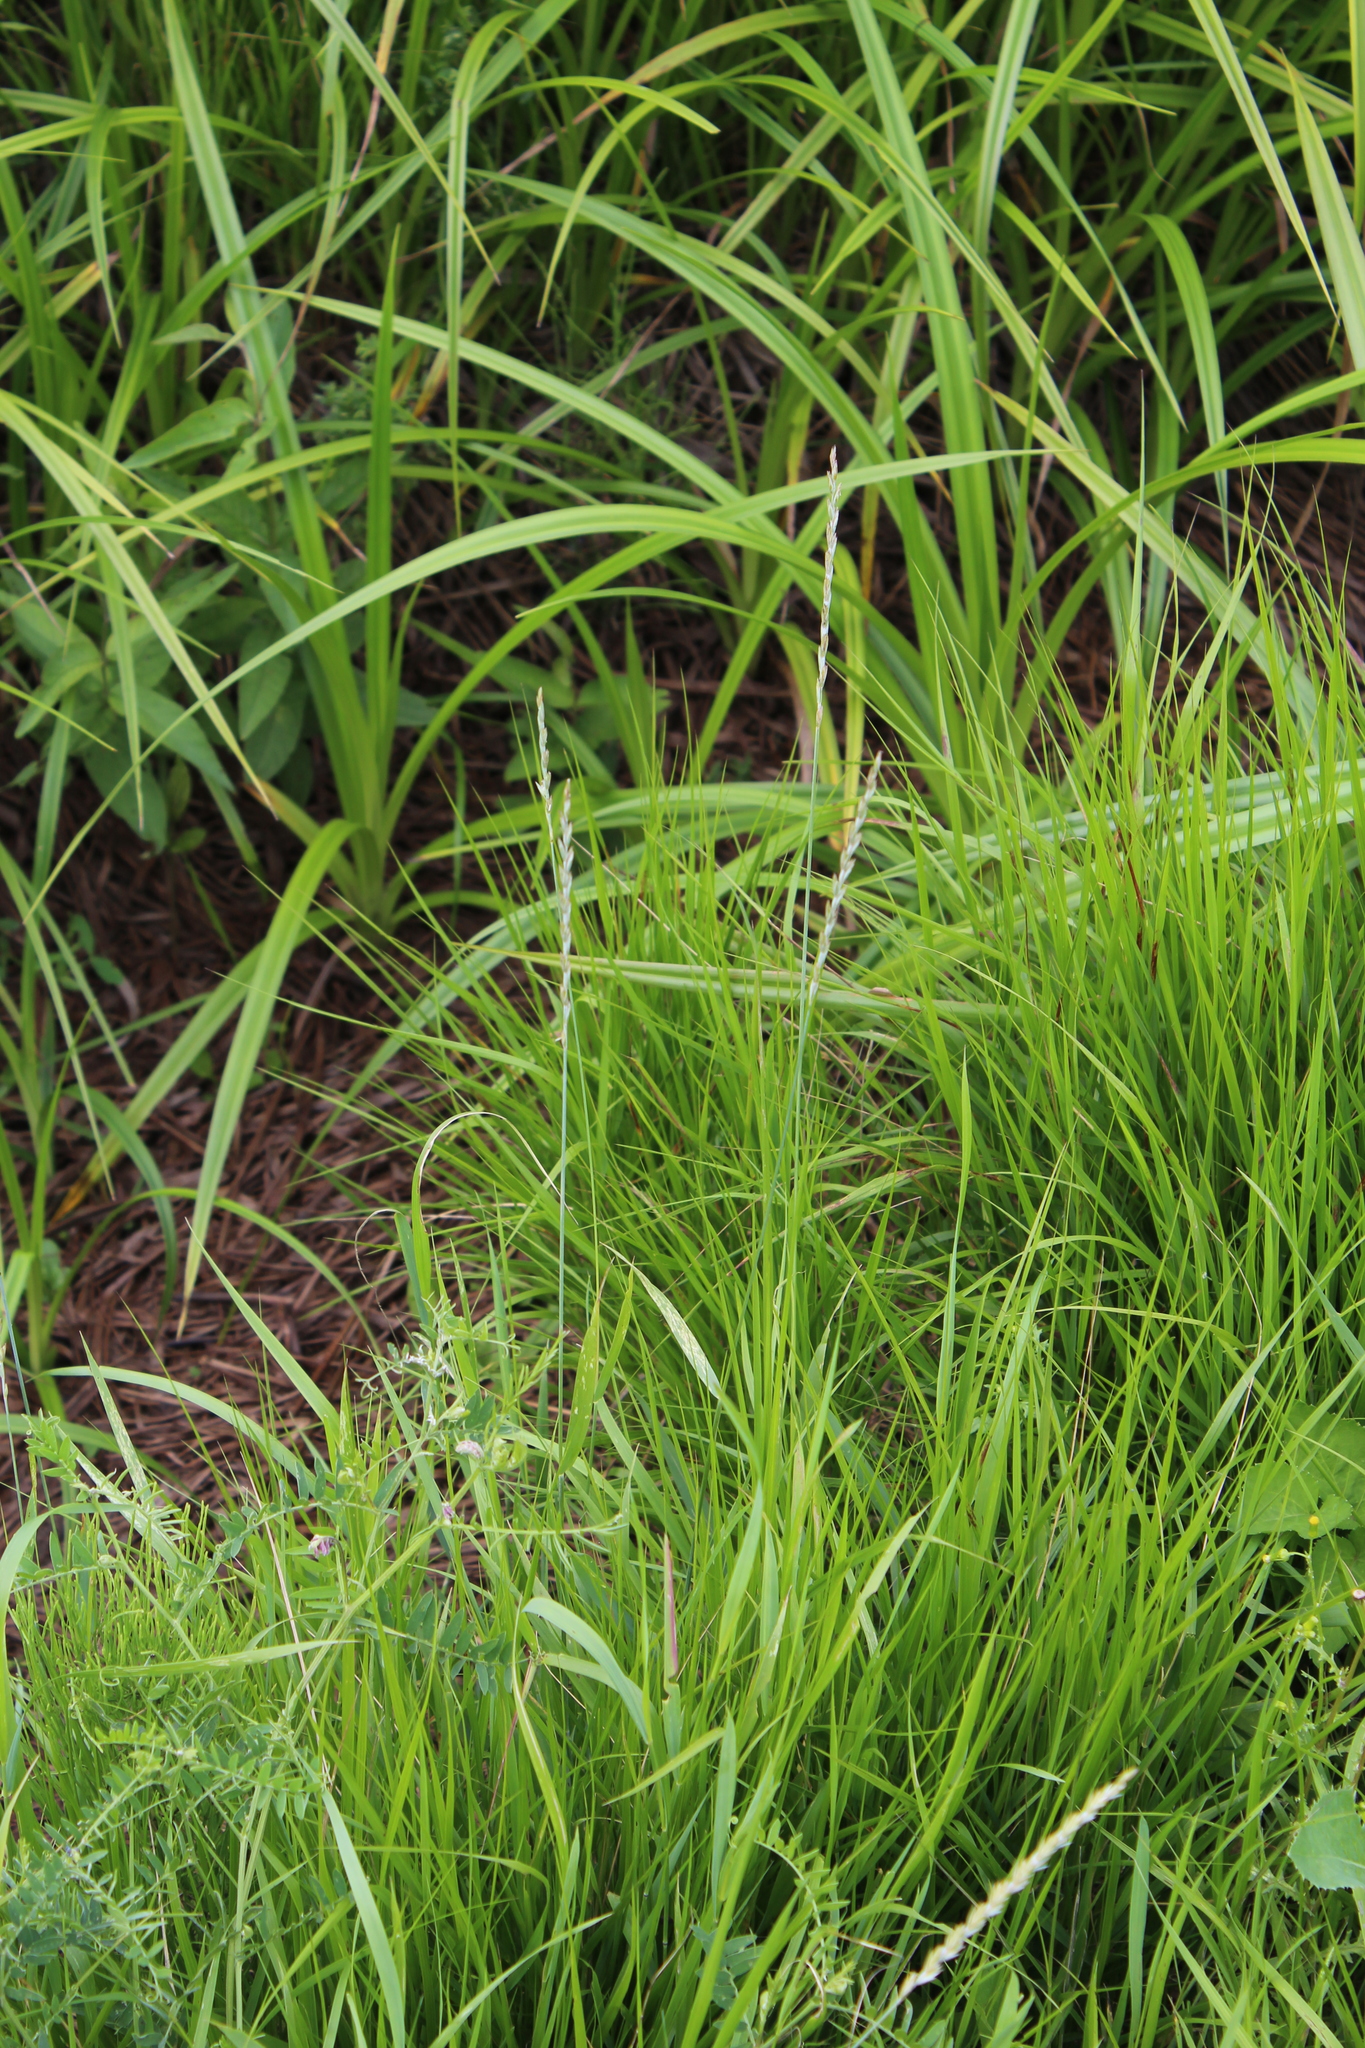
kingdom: Plantae
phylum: Tracheophyta
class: Liliopsida
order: Poales
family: Poaceae
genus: Elymus
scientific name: Elymus repens
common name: Quackgrass
